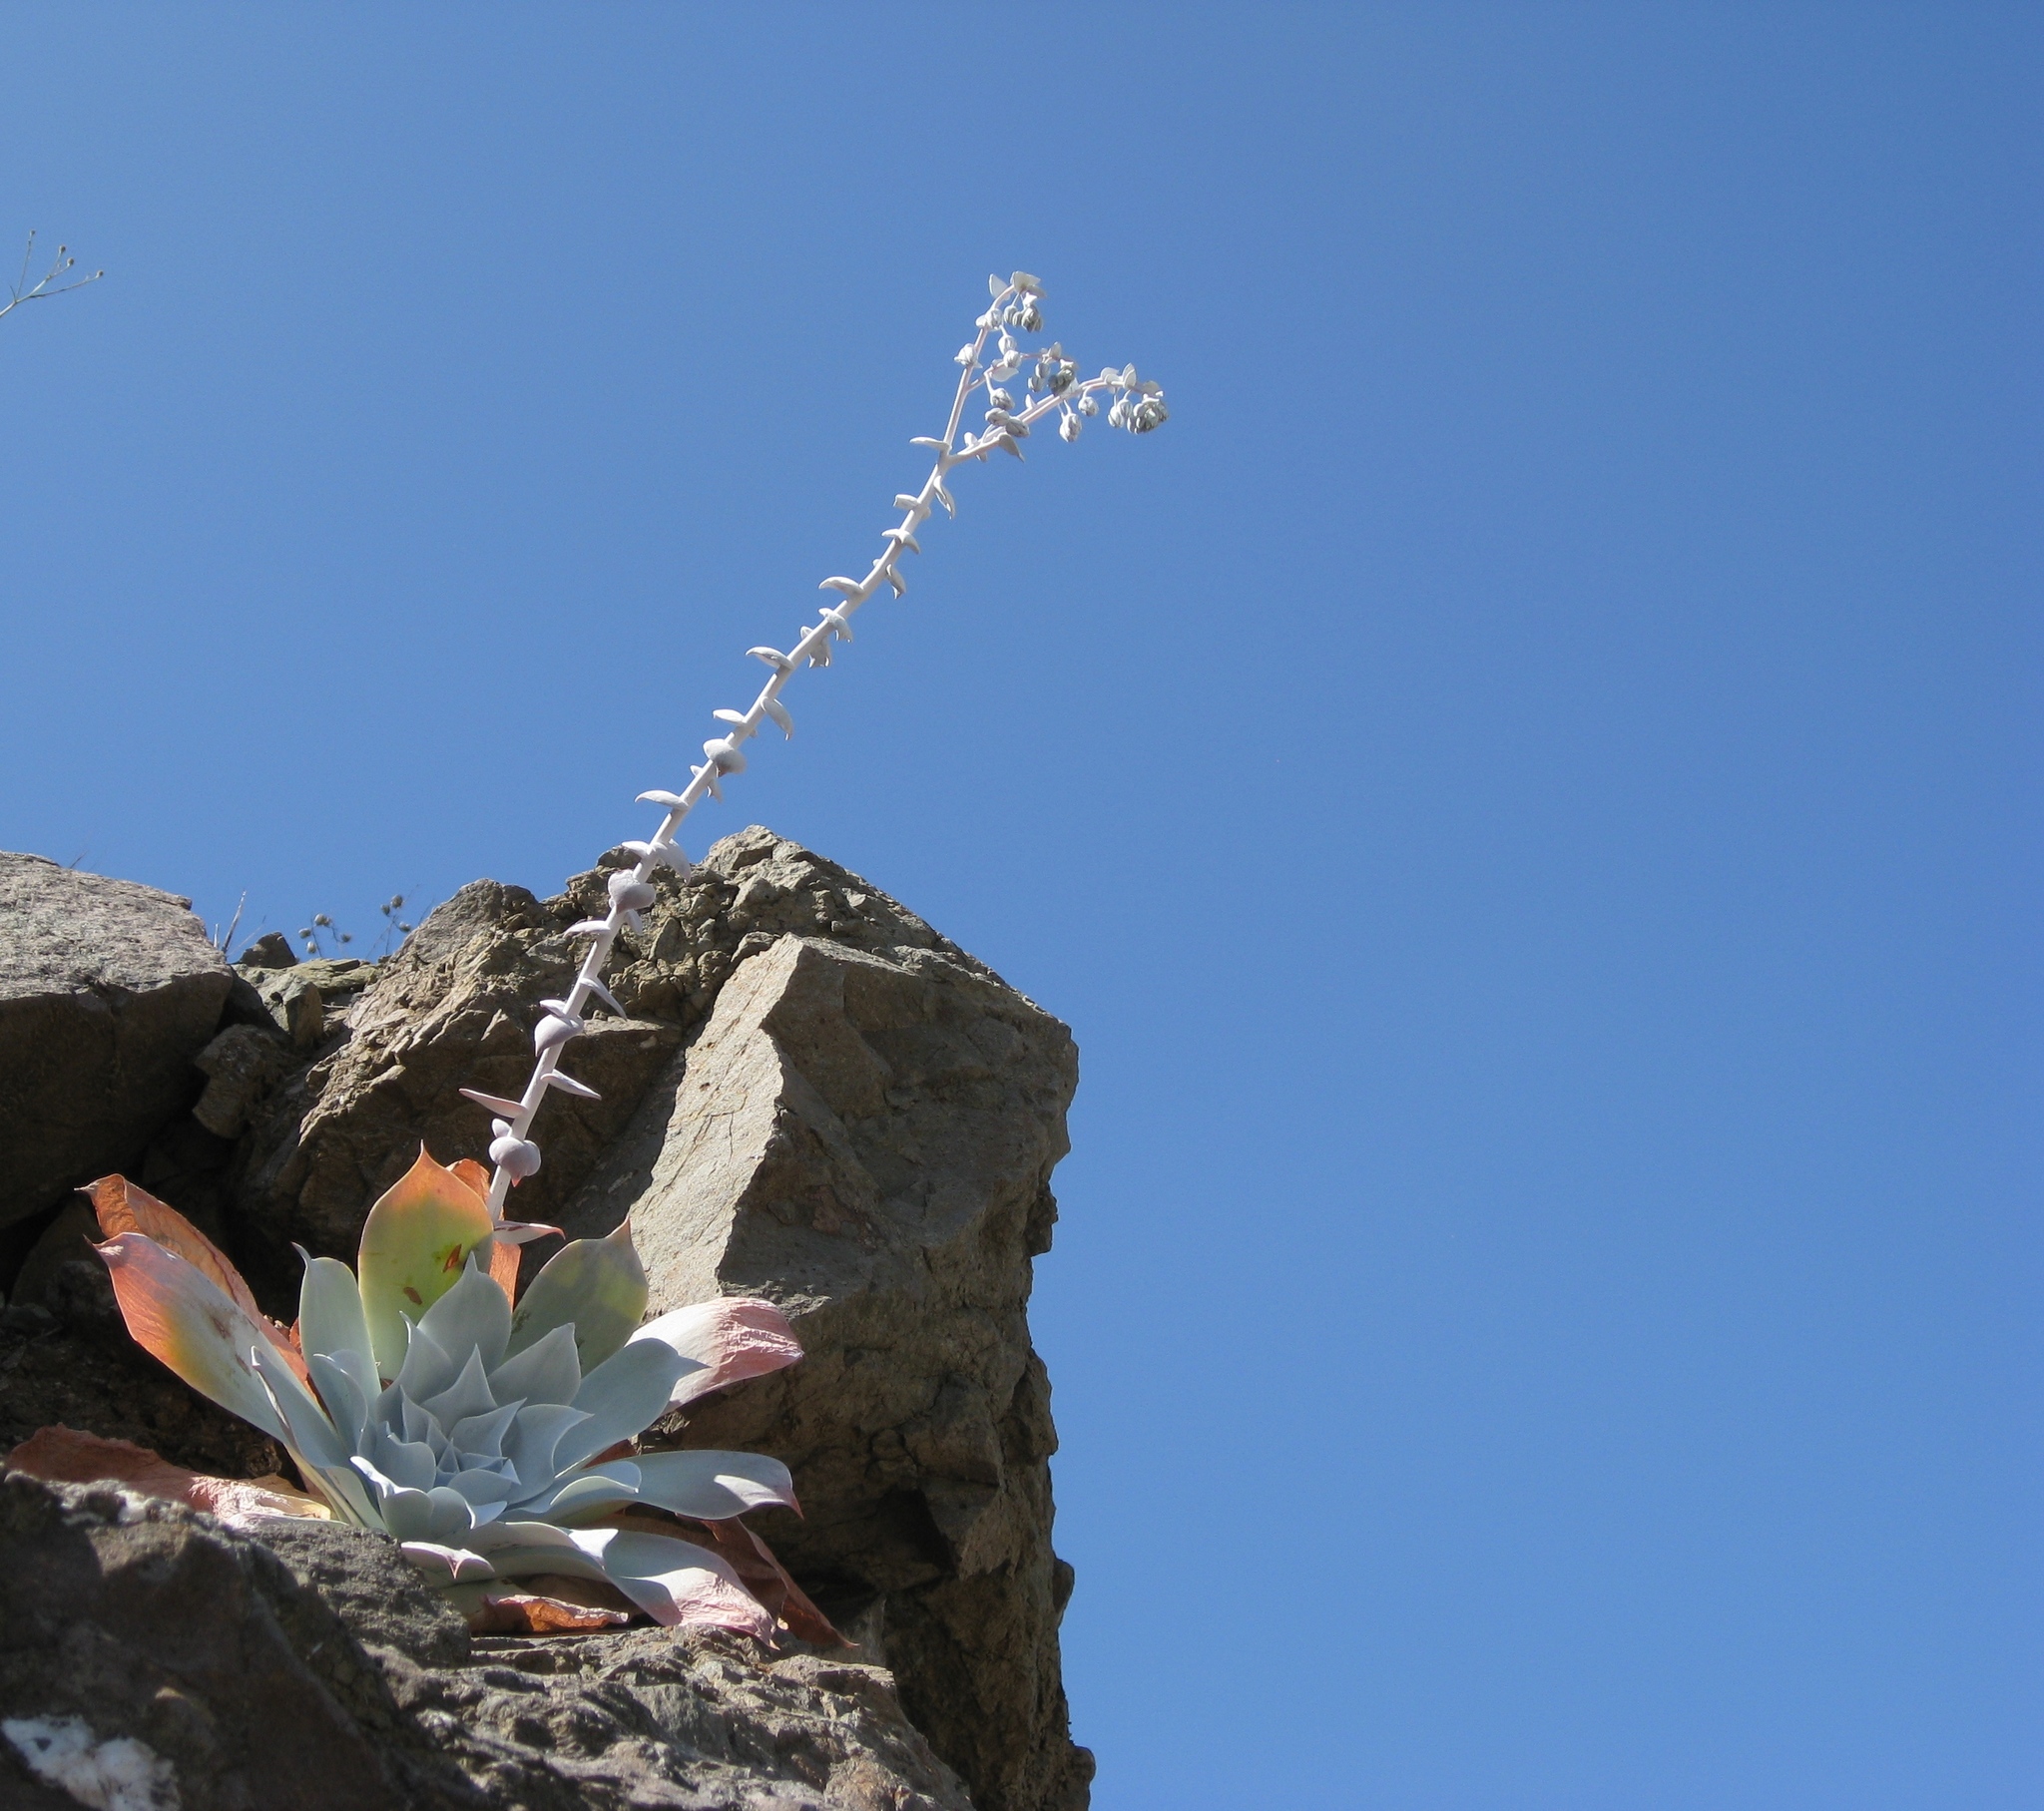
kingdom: Plantae
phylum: Tracheophyta
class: Magnoliopsida
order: Saxifragales
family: Crassulaceae
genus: Dudleya
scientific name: Dudleya pulverulenta
